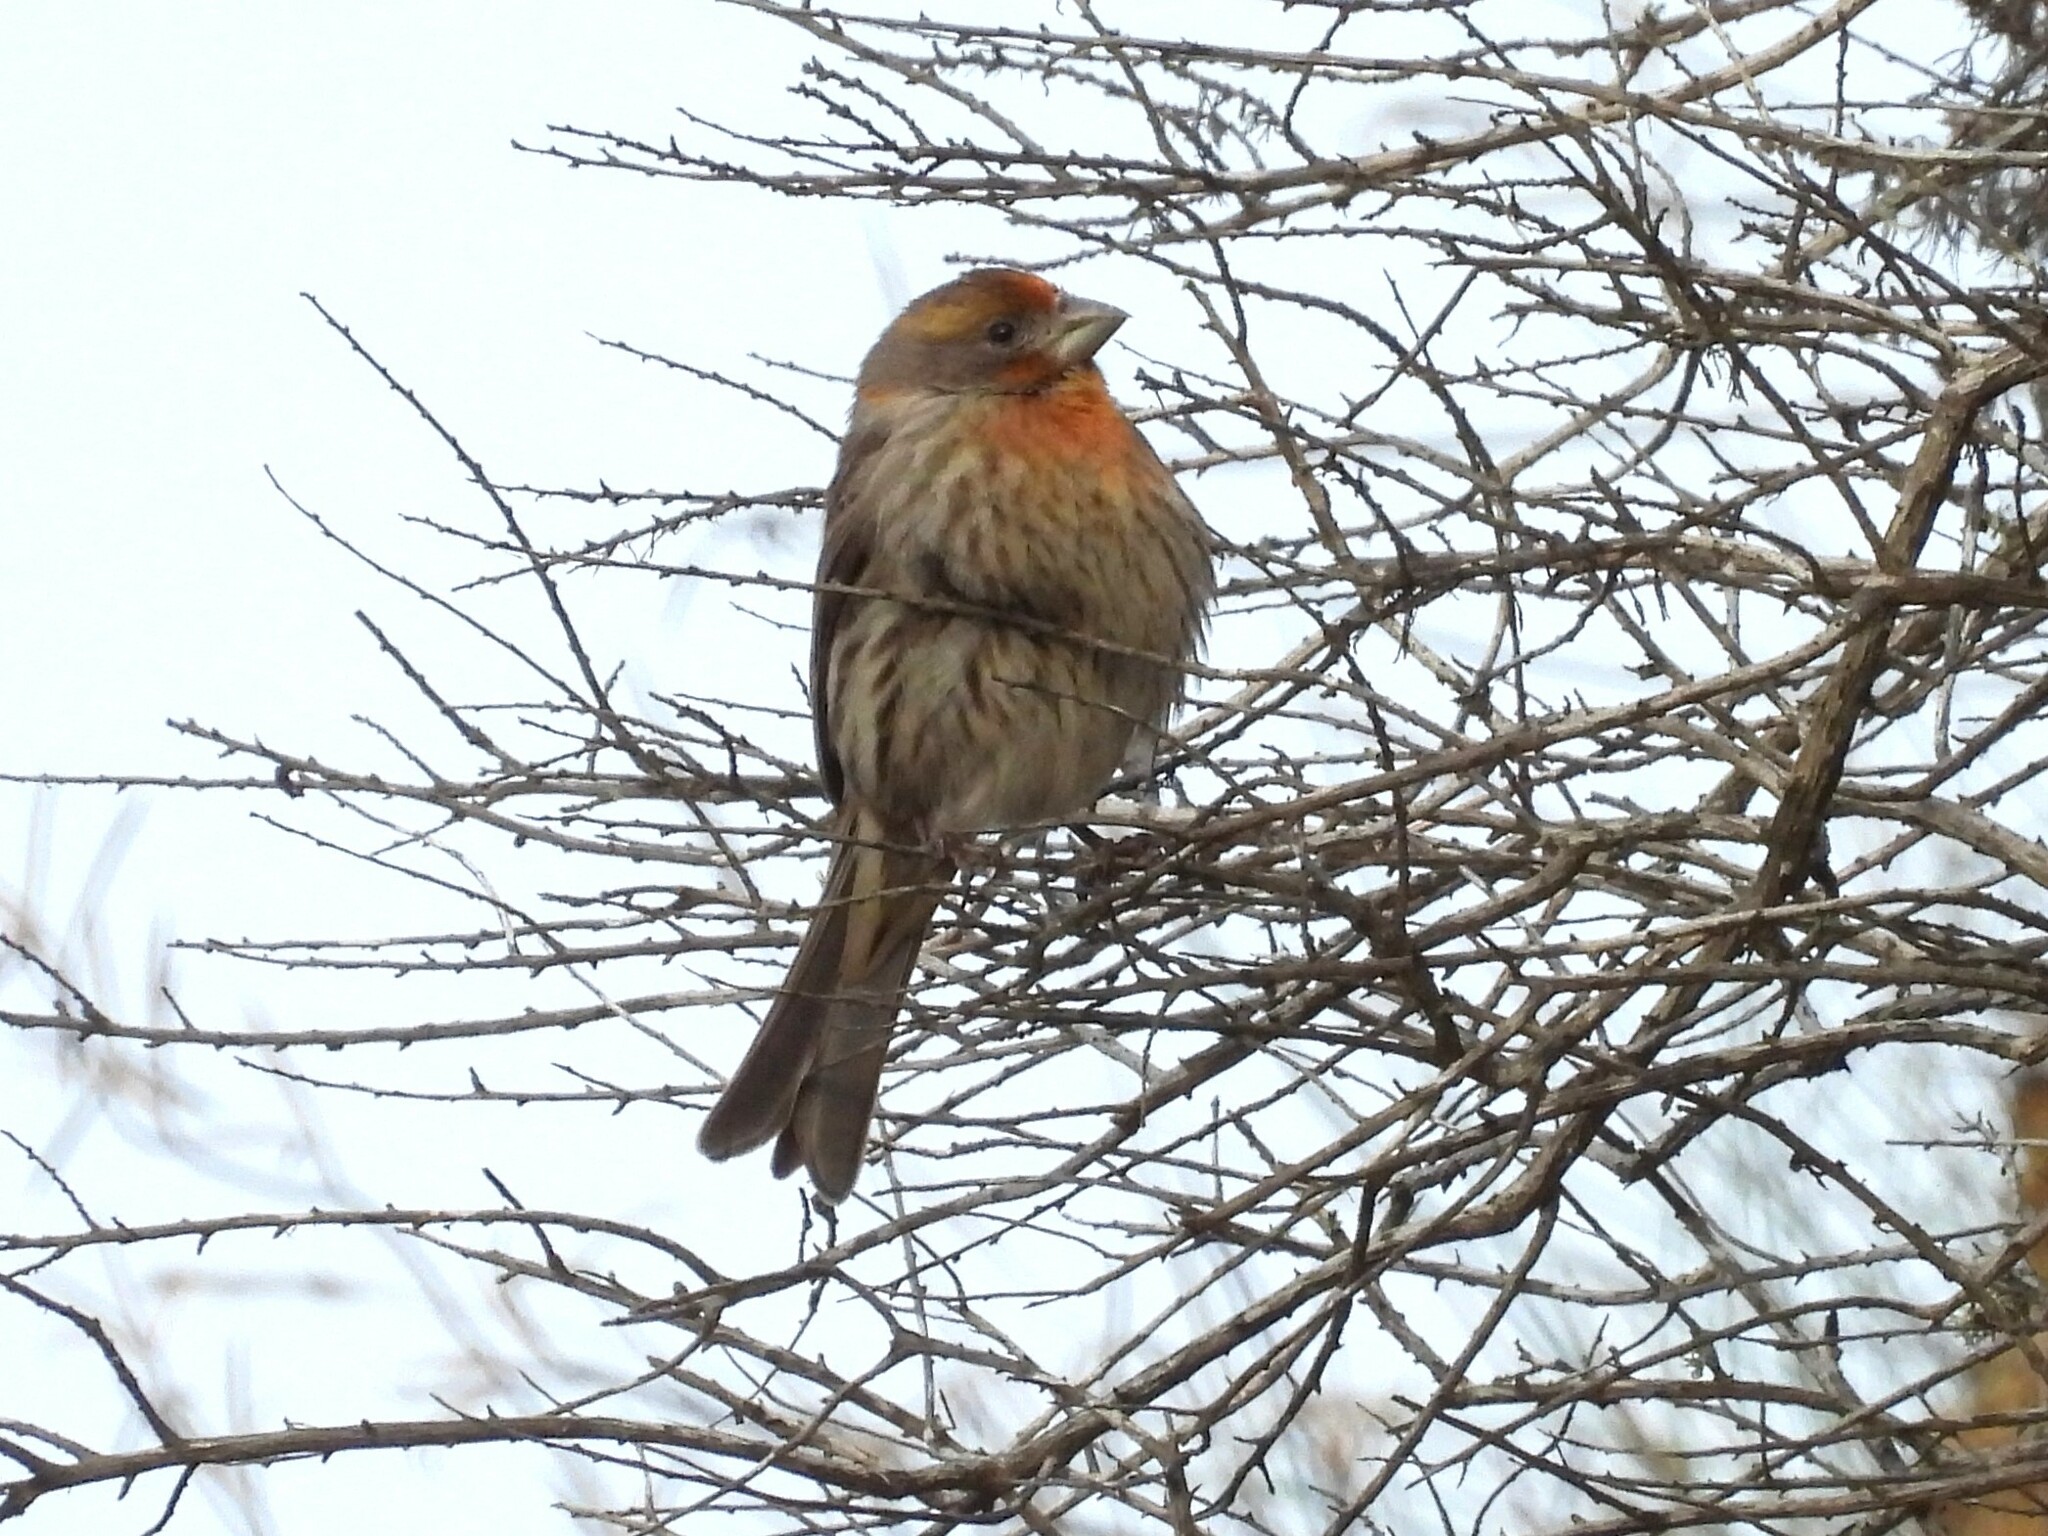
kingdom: Animalia
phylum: Chordata
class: Aves
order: Passeriformes
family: Fringillidae
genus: Haemorhous
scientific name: Haemorhous mexicanus
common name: House finch
